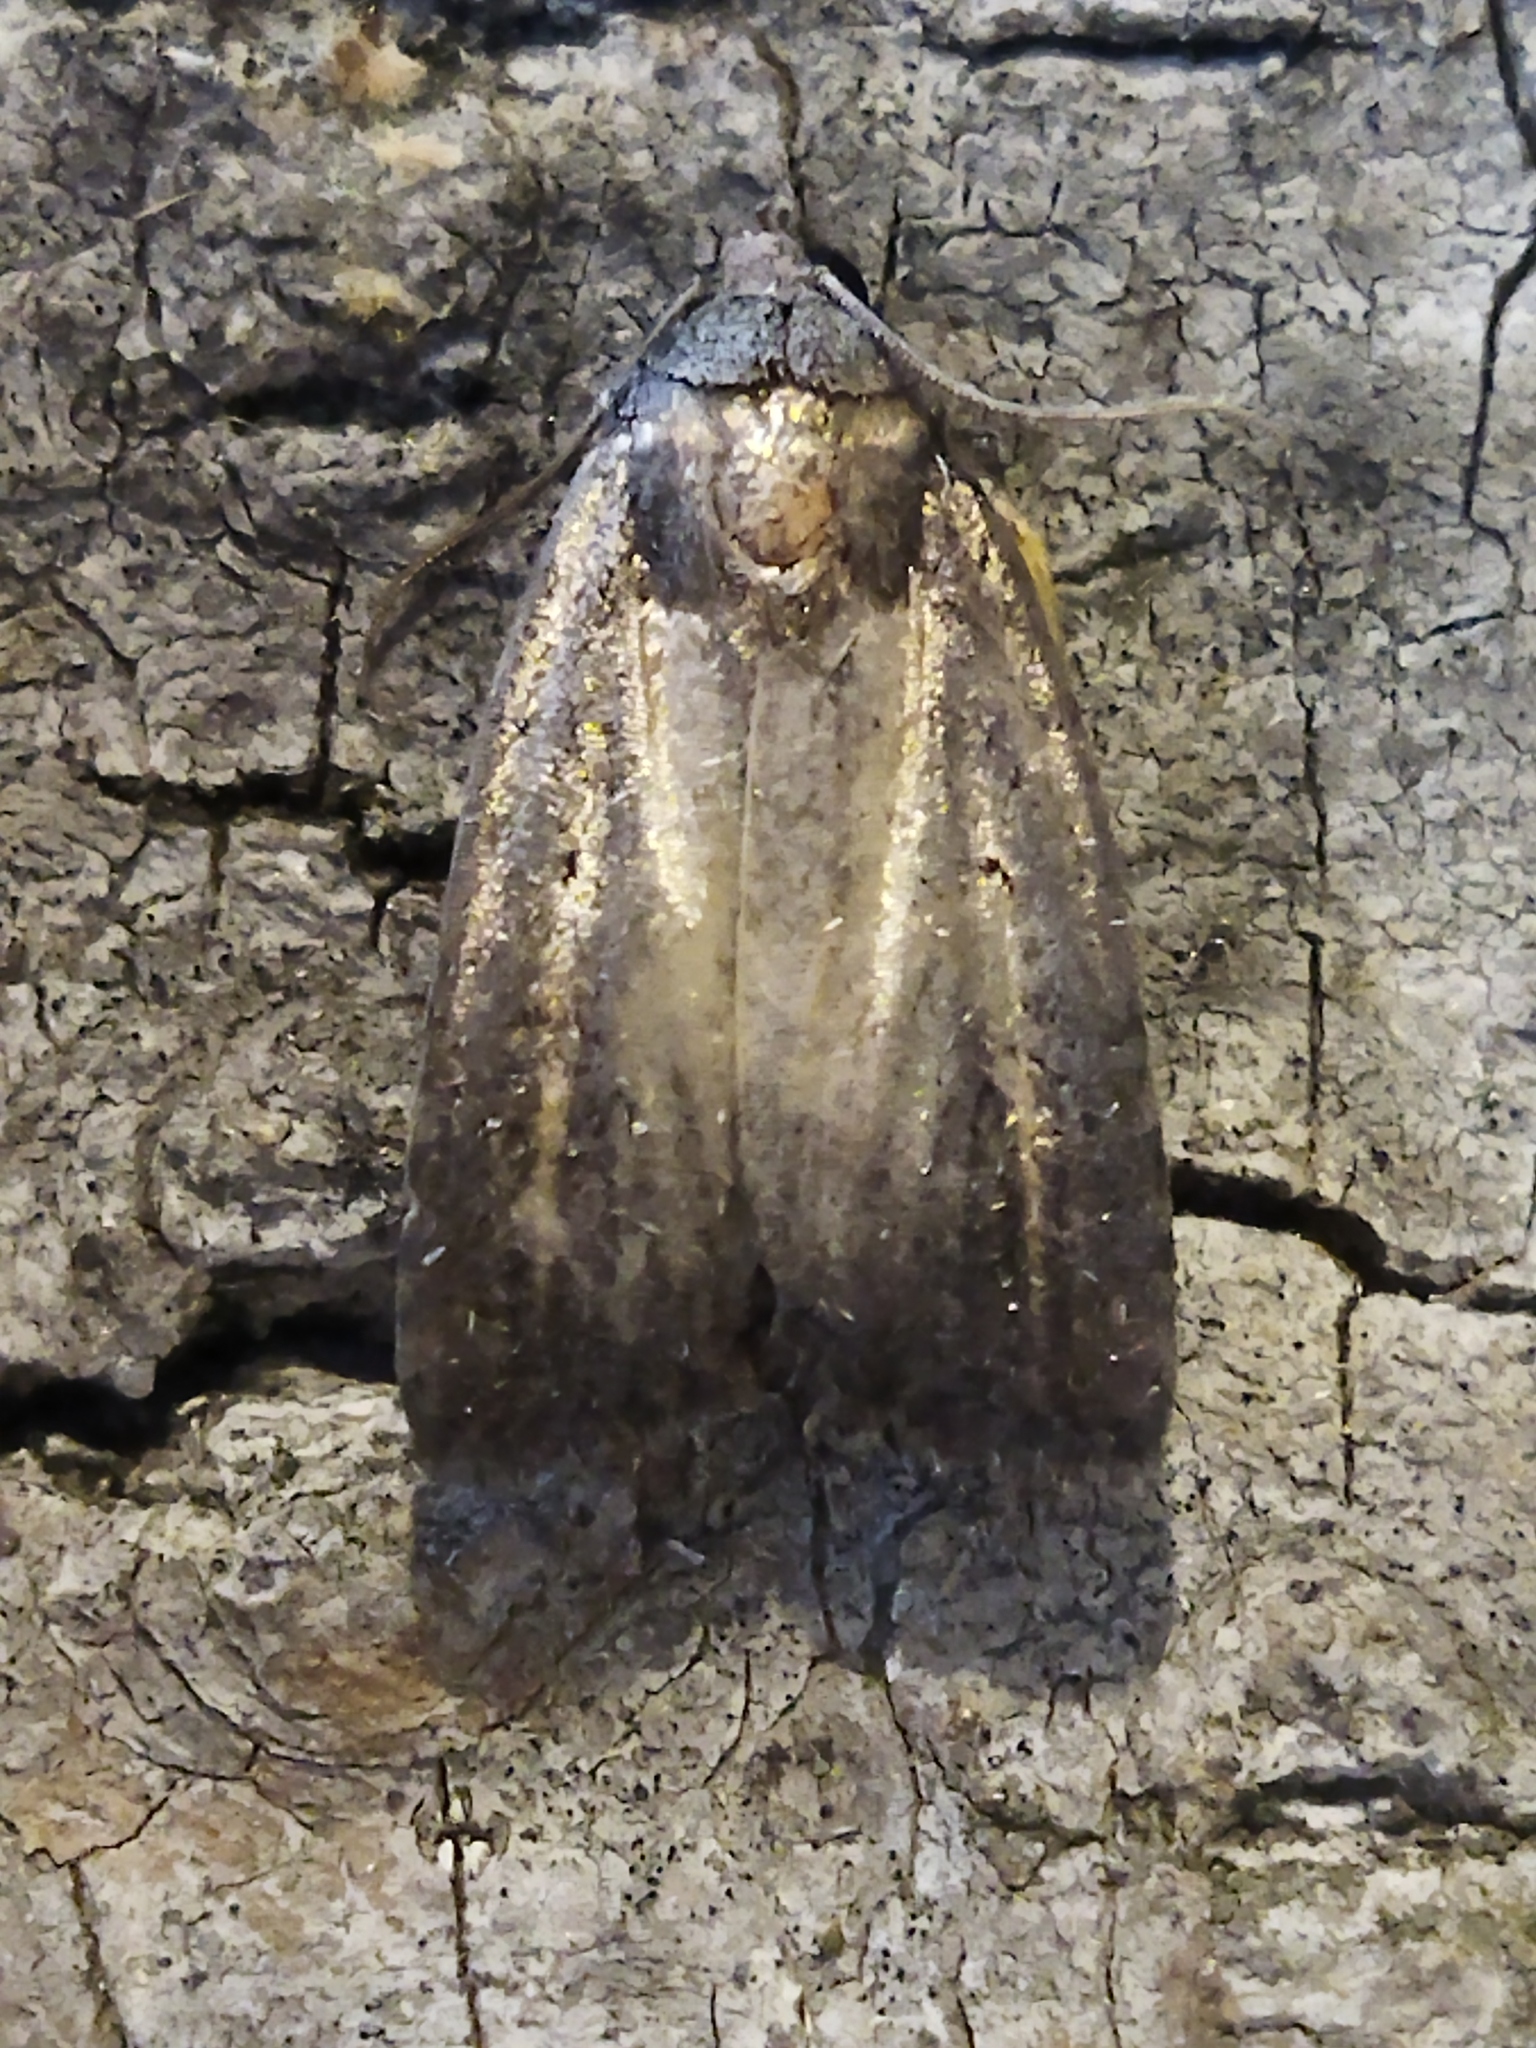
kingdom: Animalia
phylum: Arthropoda
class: Insecta
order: Lepidoptera
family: Noctuidae
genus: Athetis
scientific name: Athetis hospes
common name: Porter's rustic
